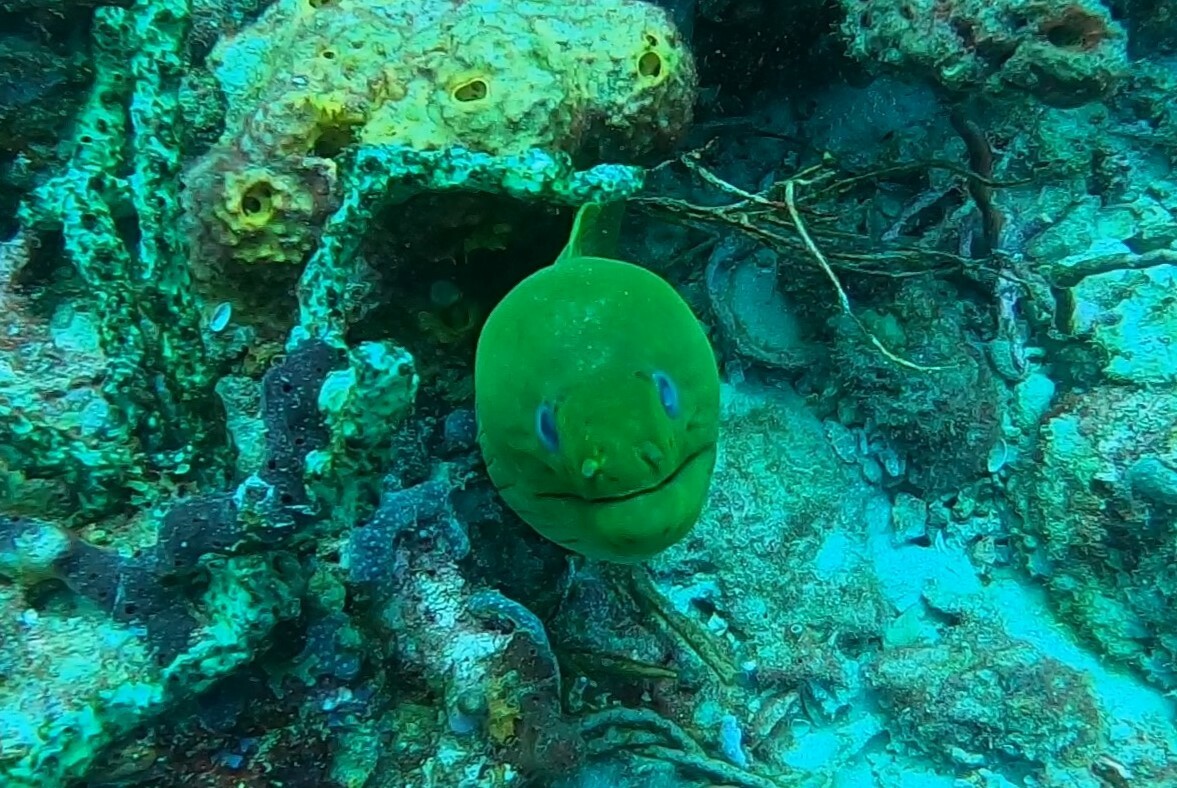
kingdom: Animalia
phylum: Chordata
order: Anguilliformes
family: Muraenidae
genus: Gymnothorax
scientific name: Gymnothorax funebris
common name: Green moray
